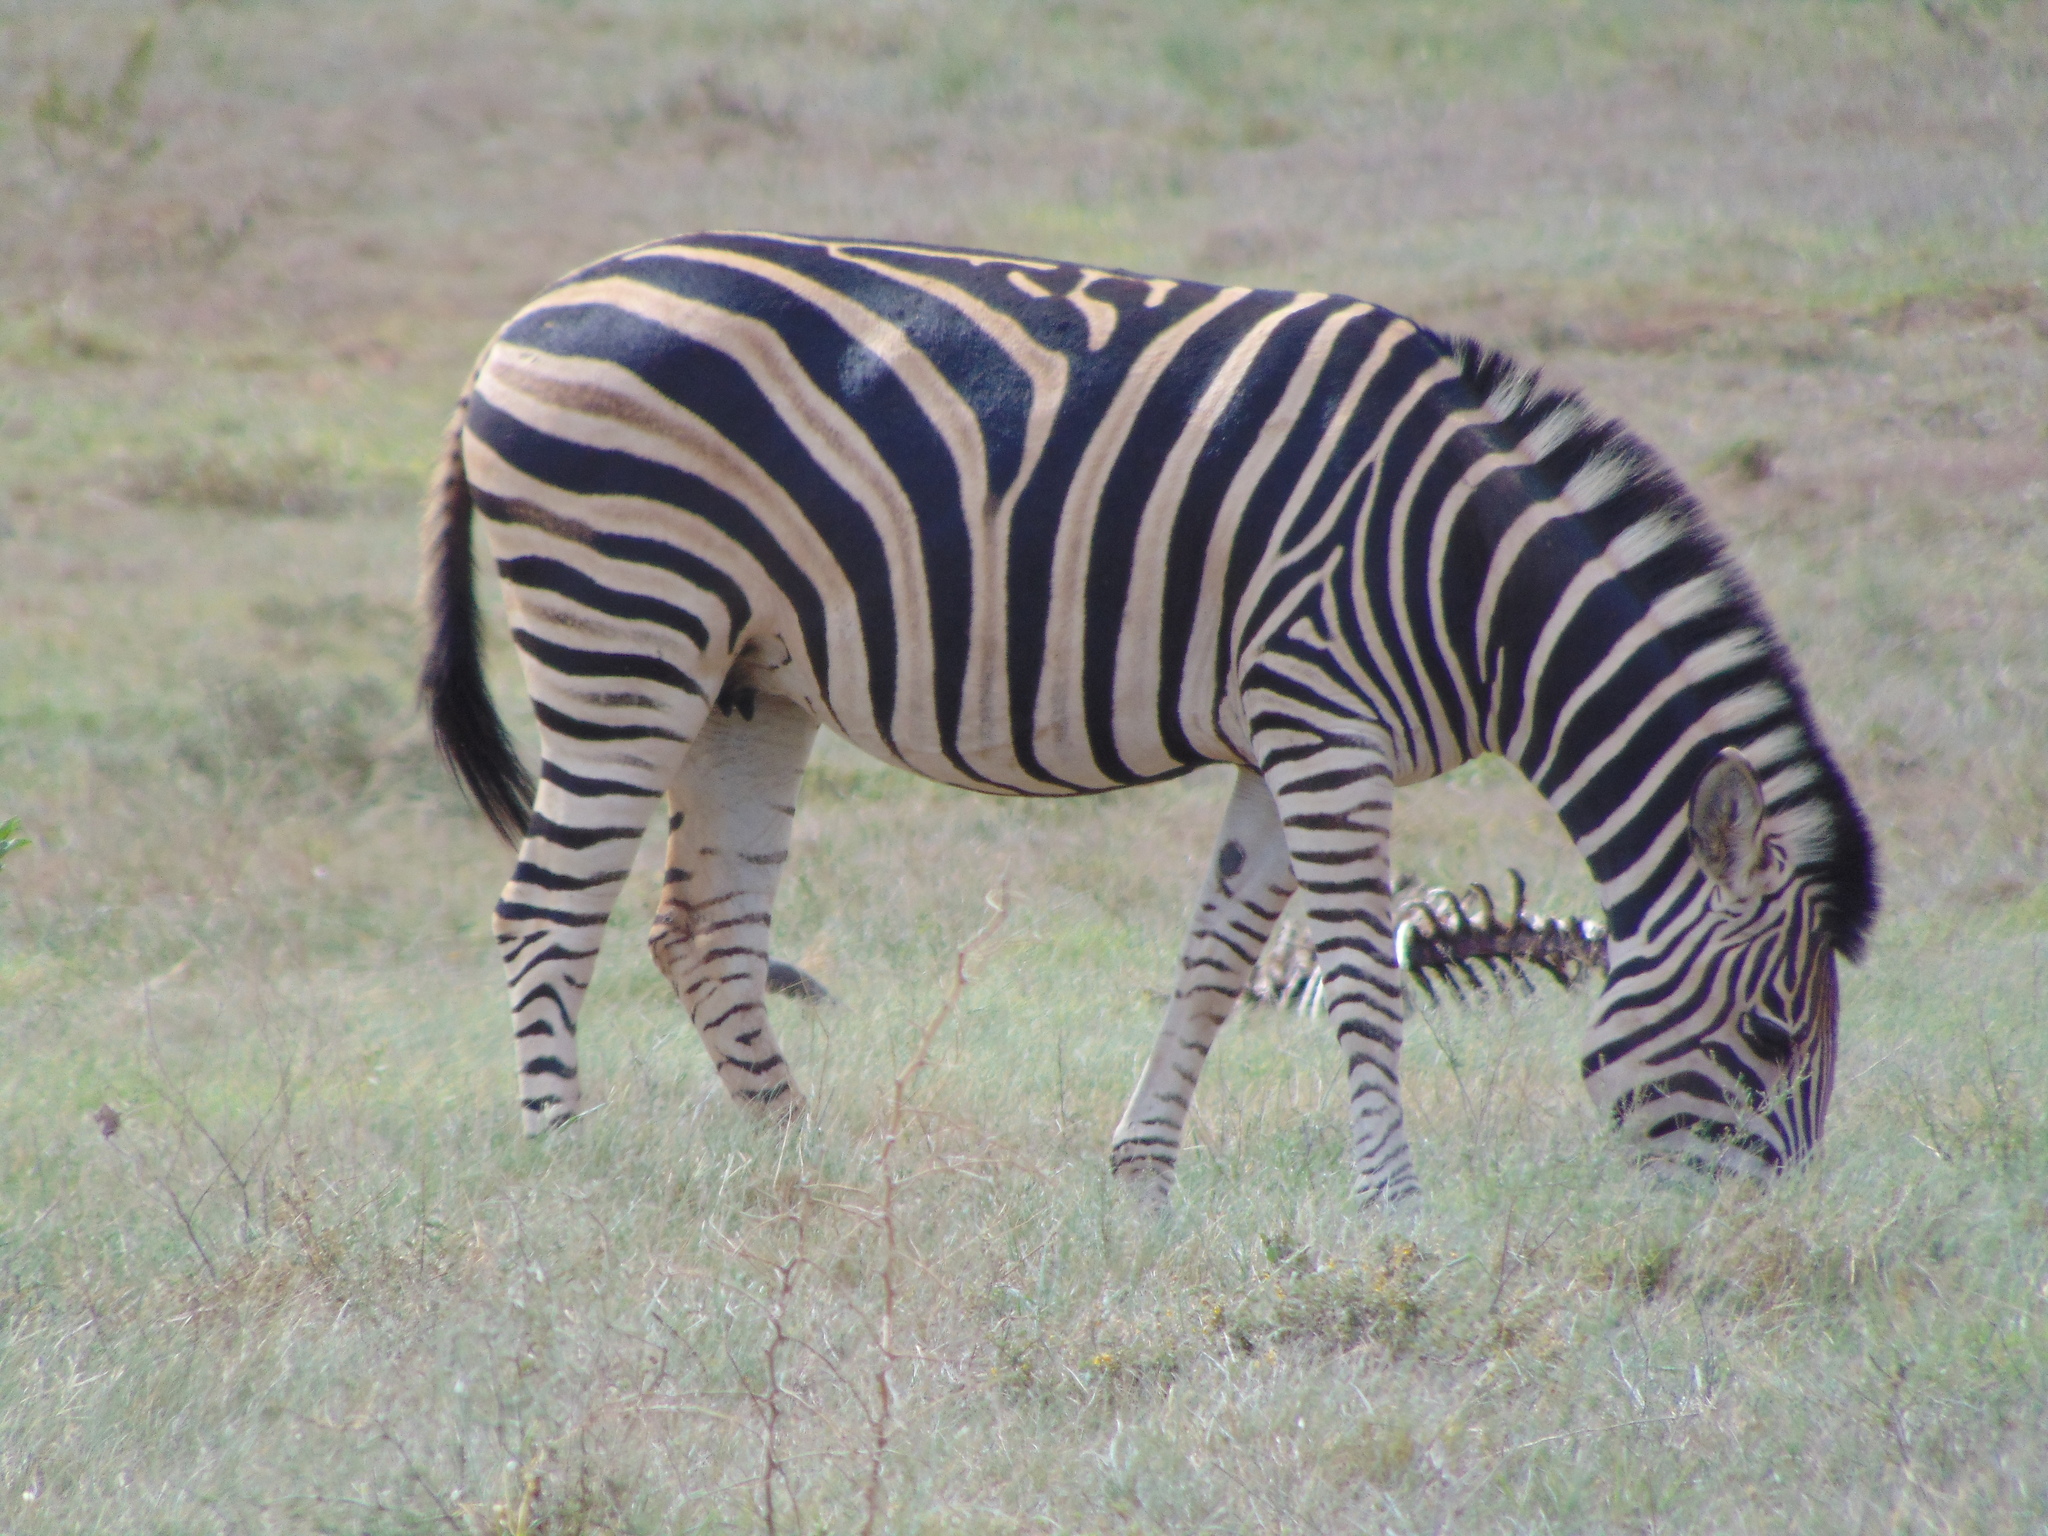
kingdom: Animalia
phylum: Chordata
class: Mammalia
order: Perissodactyla
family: Equidae
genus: Equus
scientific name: Equus quagga
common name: Plains zebra
